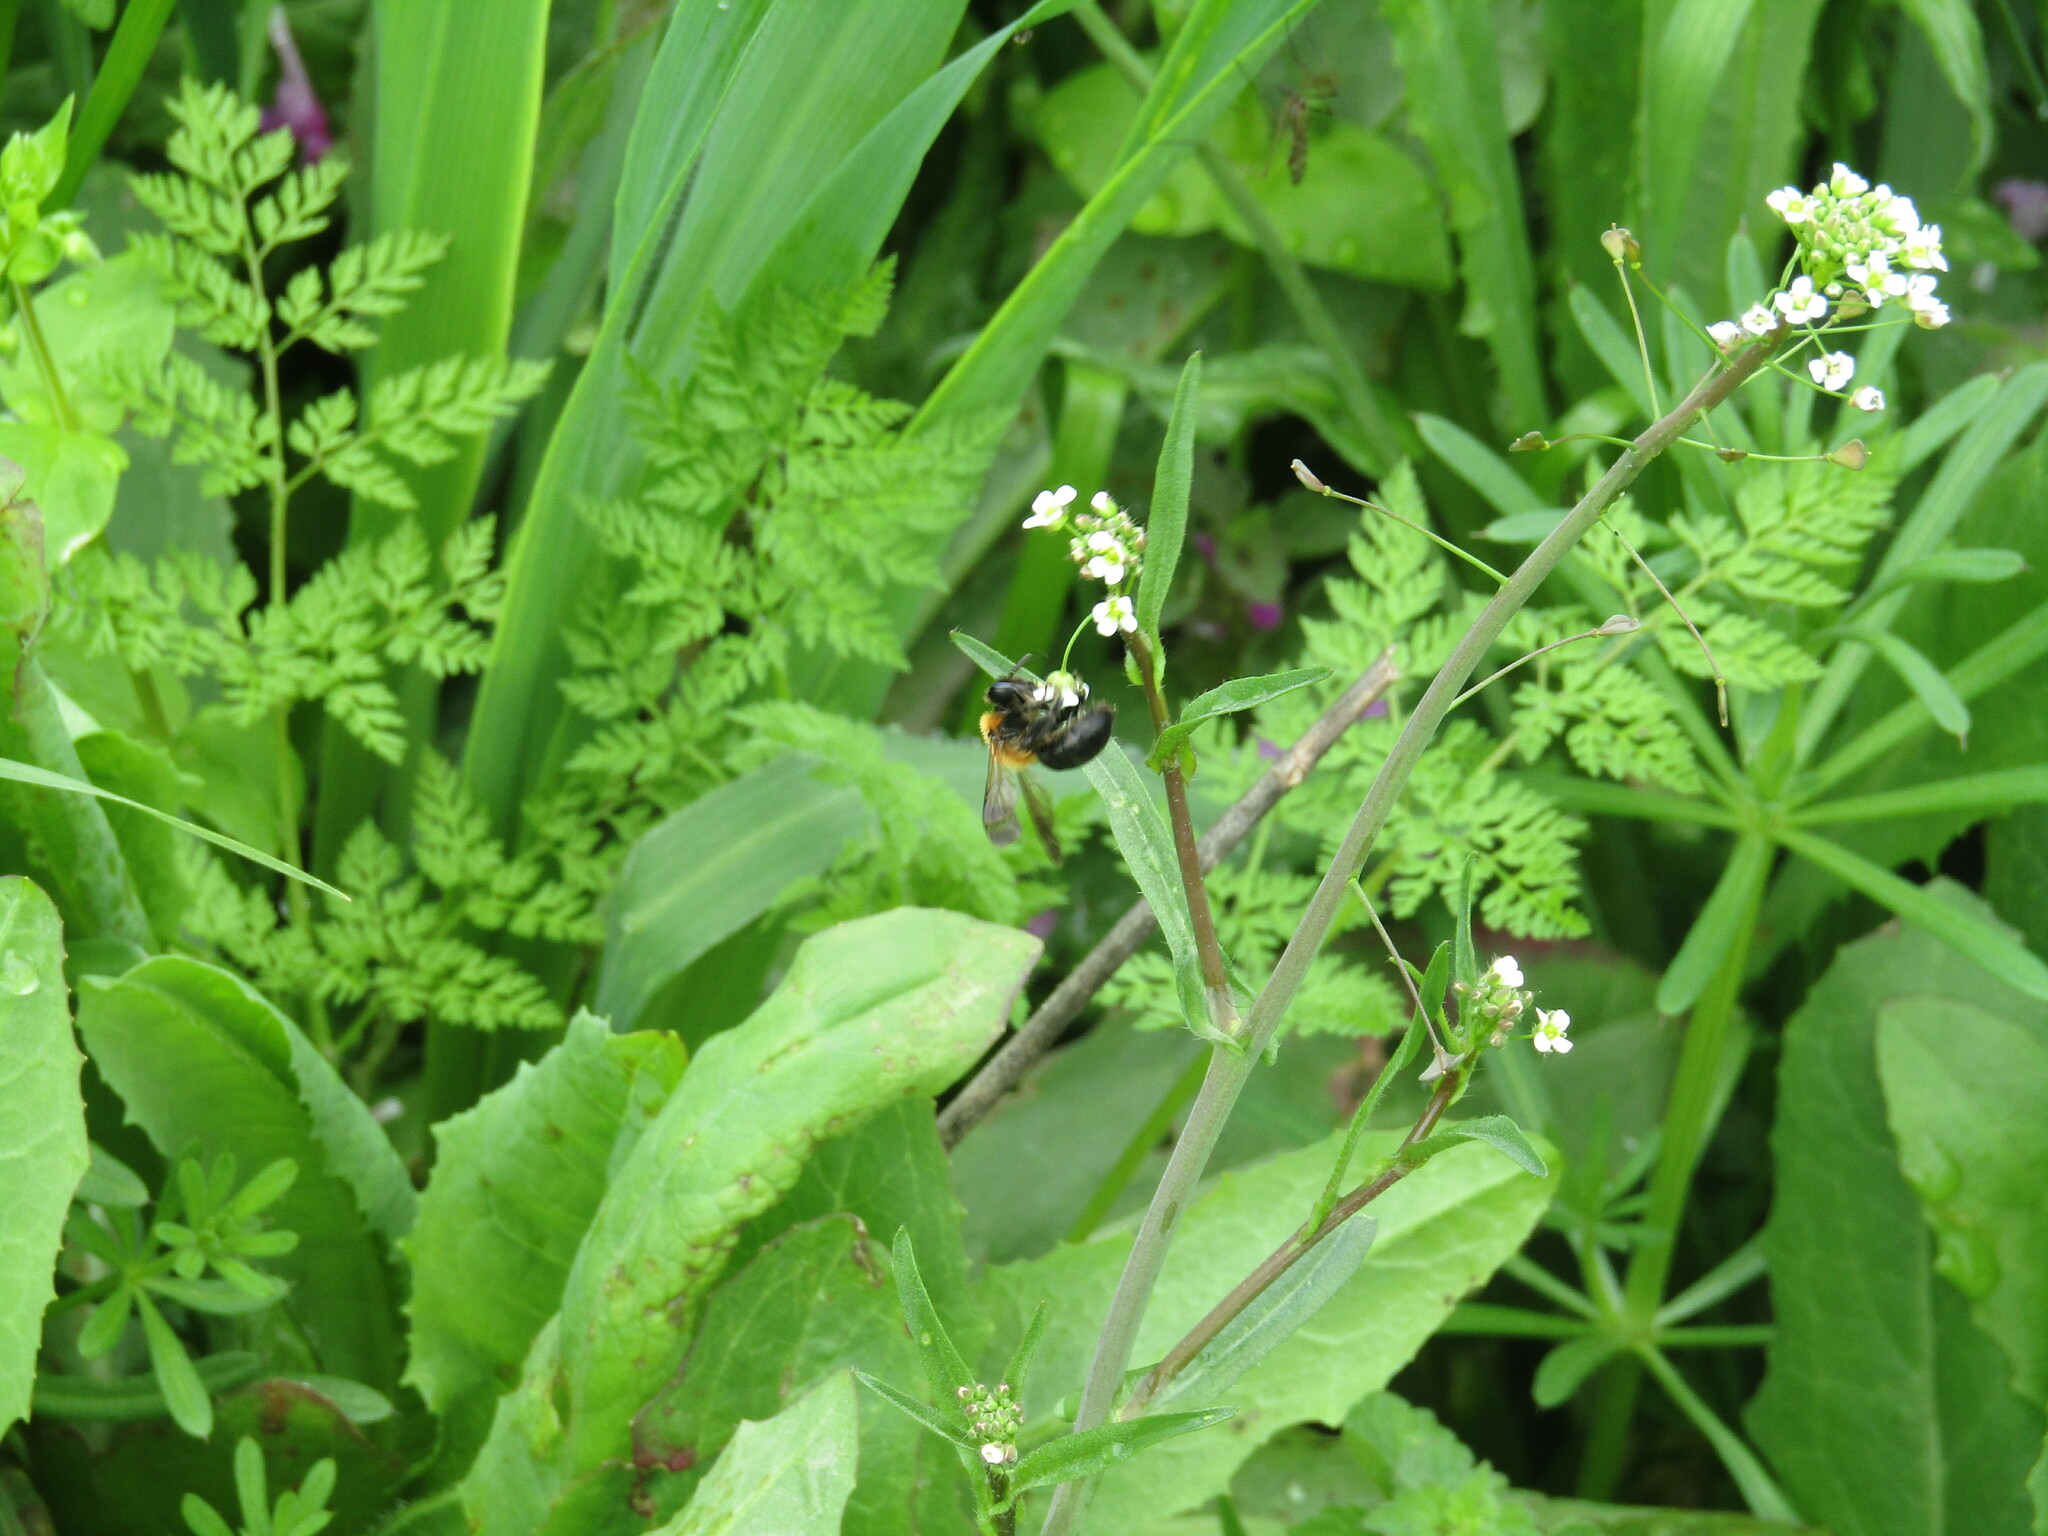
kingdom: Animalia
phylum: Arthropoda
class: Insecta
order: Hymenoptera
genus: Melandrena
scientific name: Melandrena
